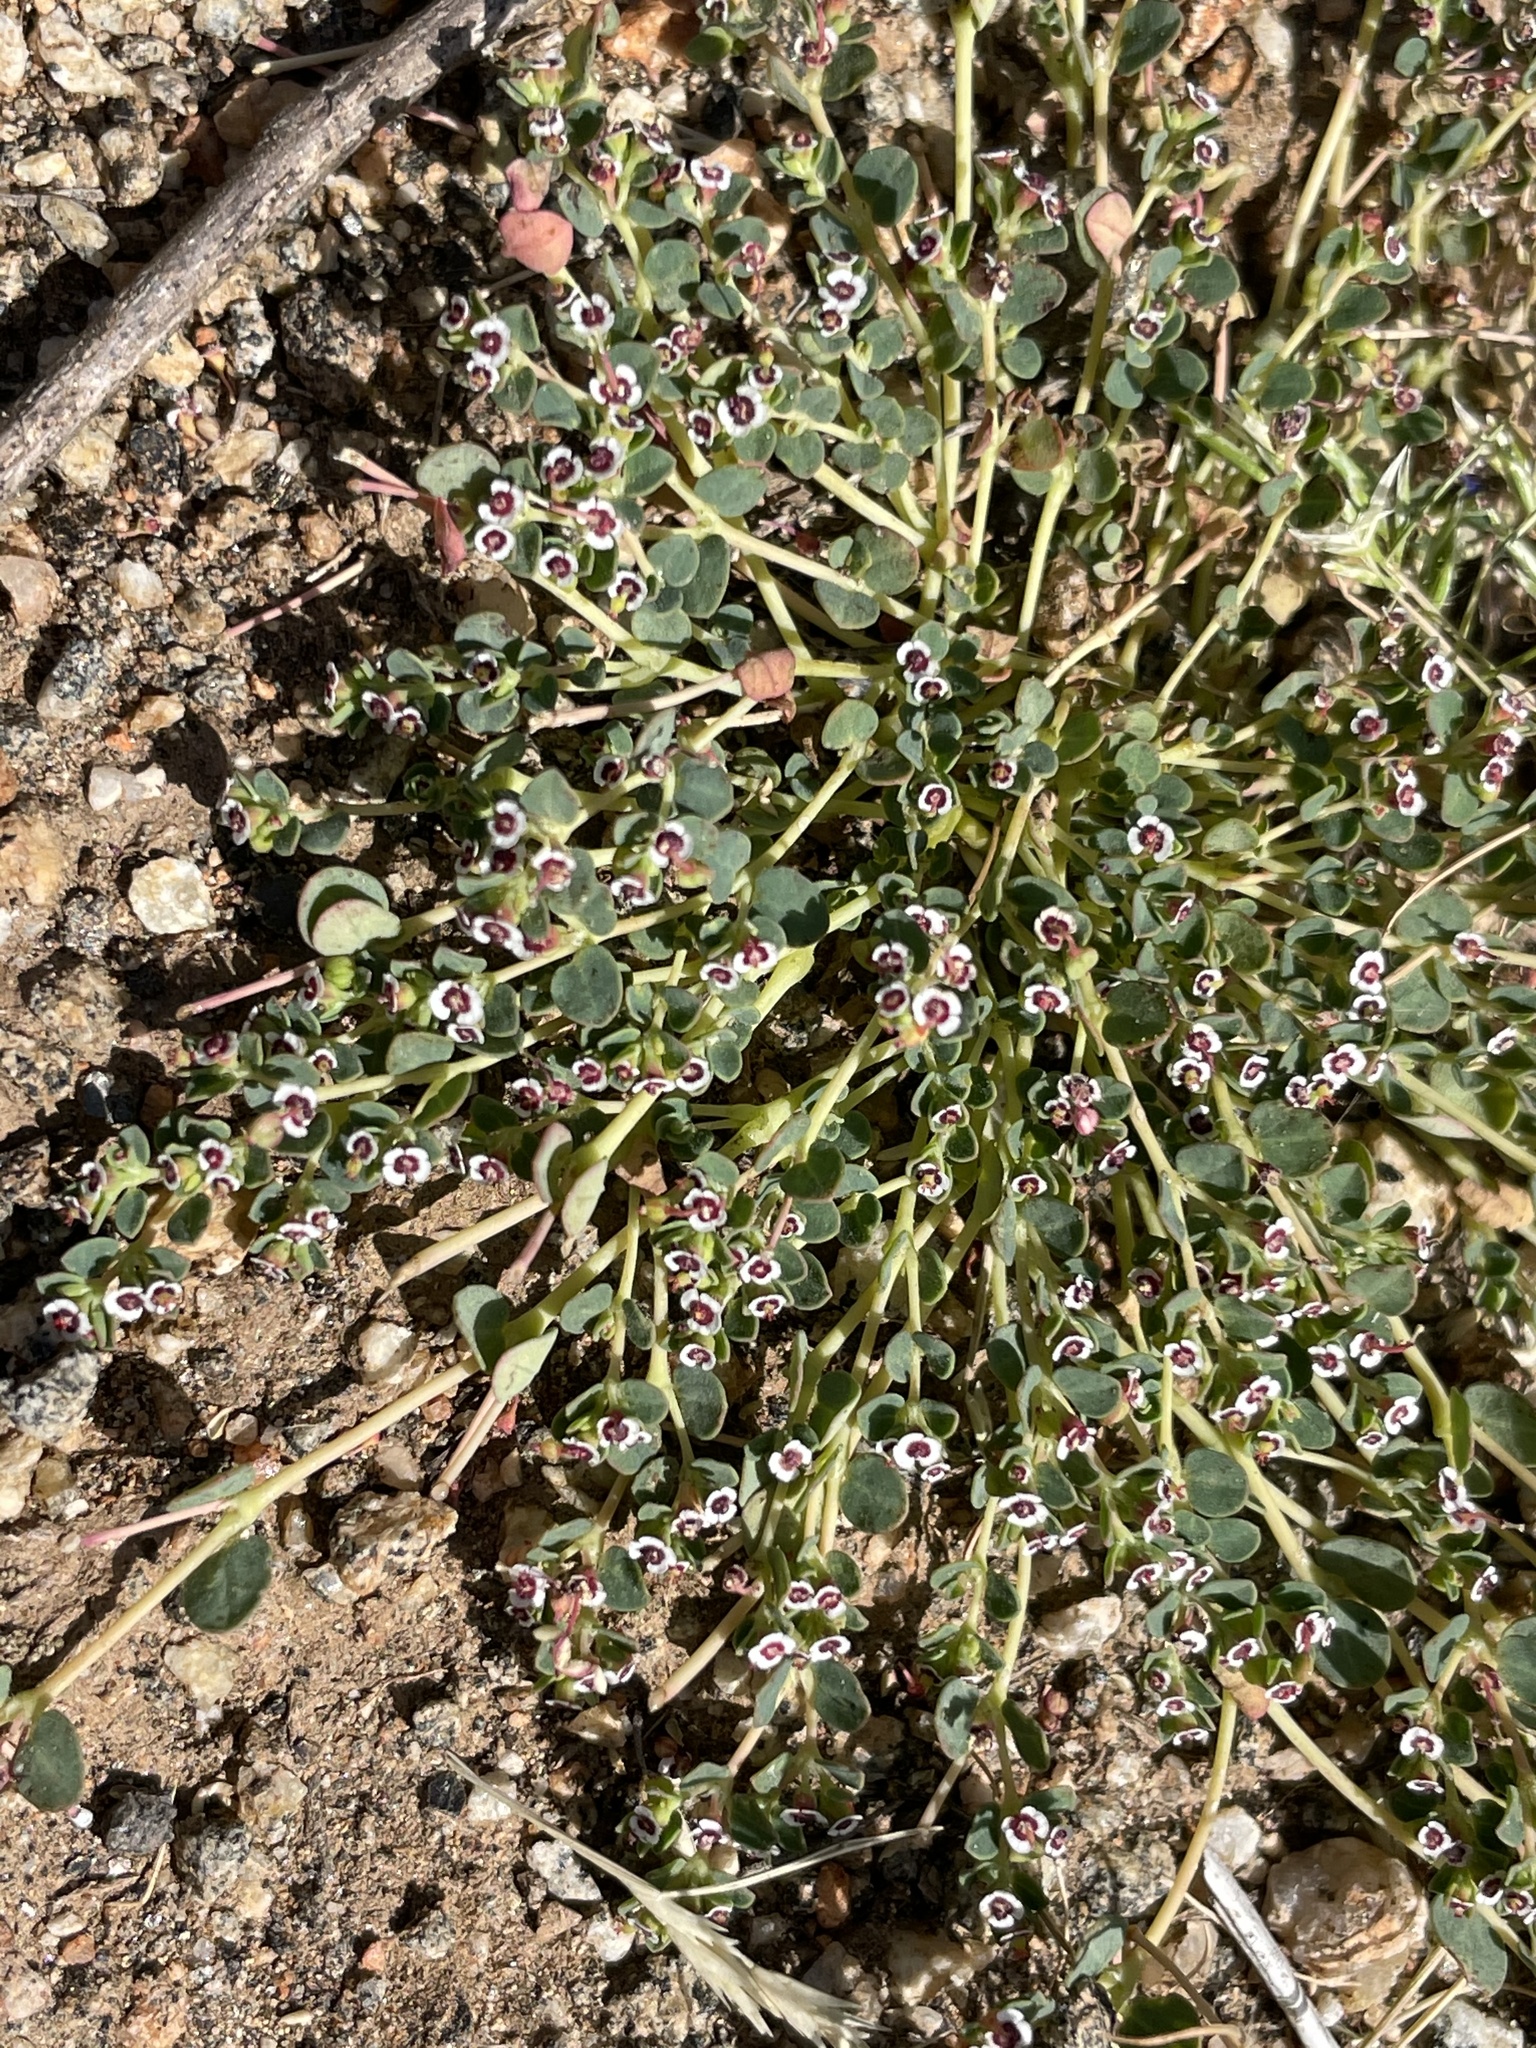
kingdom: Plantae
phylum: Tracheophyta
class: Magnoliopsida
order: Malpighiales
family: Euphorbiaceae
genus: Euphorbia
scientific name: Euphorbia polycarpa
